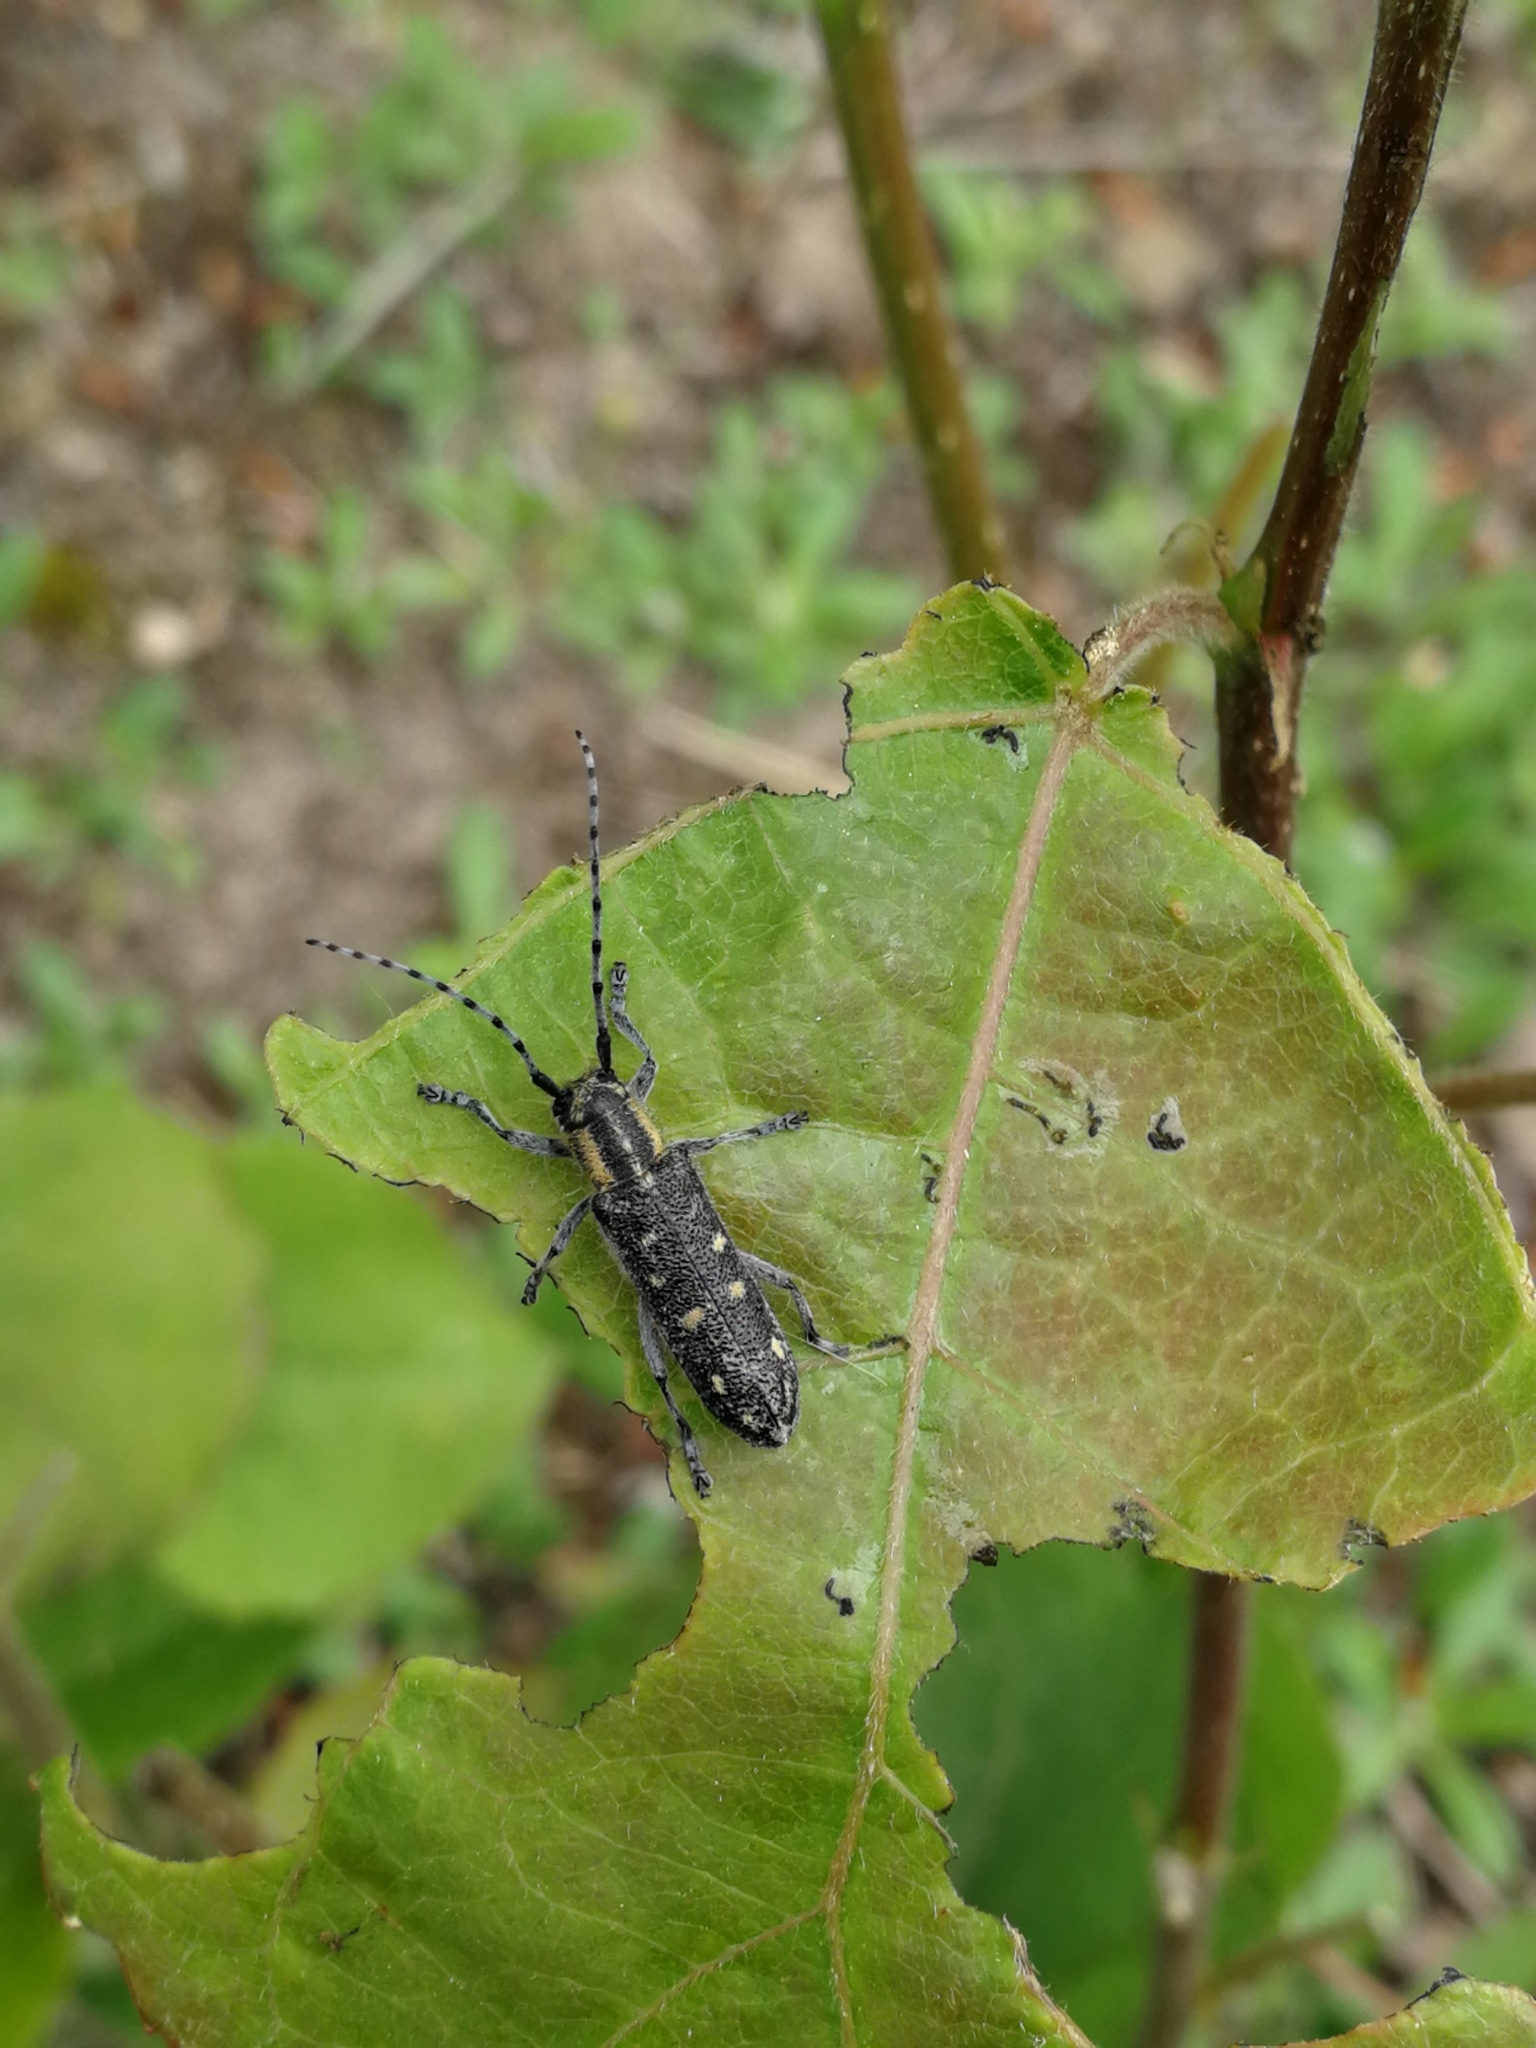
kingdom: Animalia
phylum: Arthropoda
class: Insecta
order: Coleoptera
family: Cerambycidae
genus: Saperda
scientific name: Saperda populnea
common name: Small poplar borer
